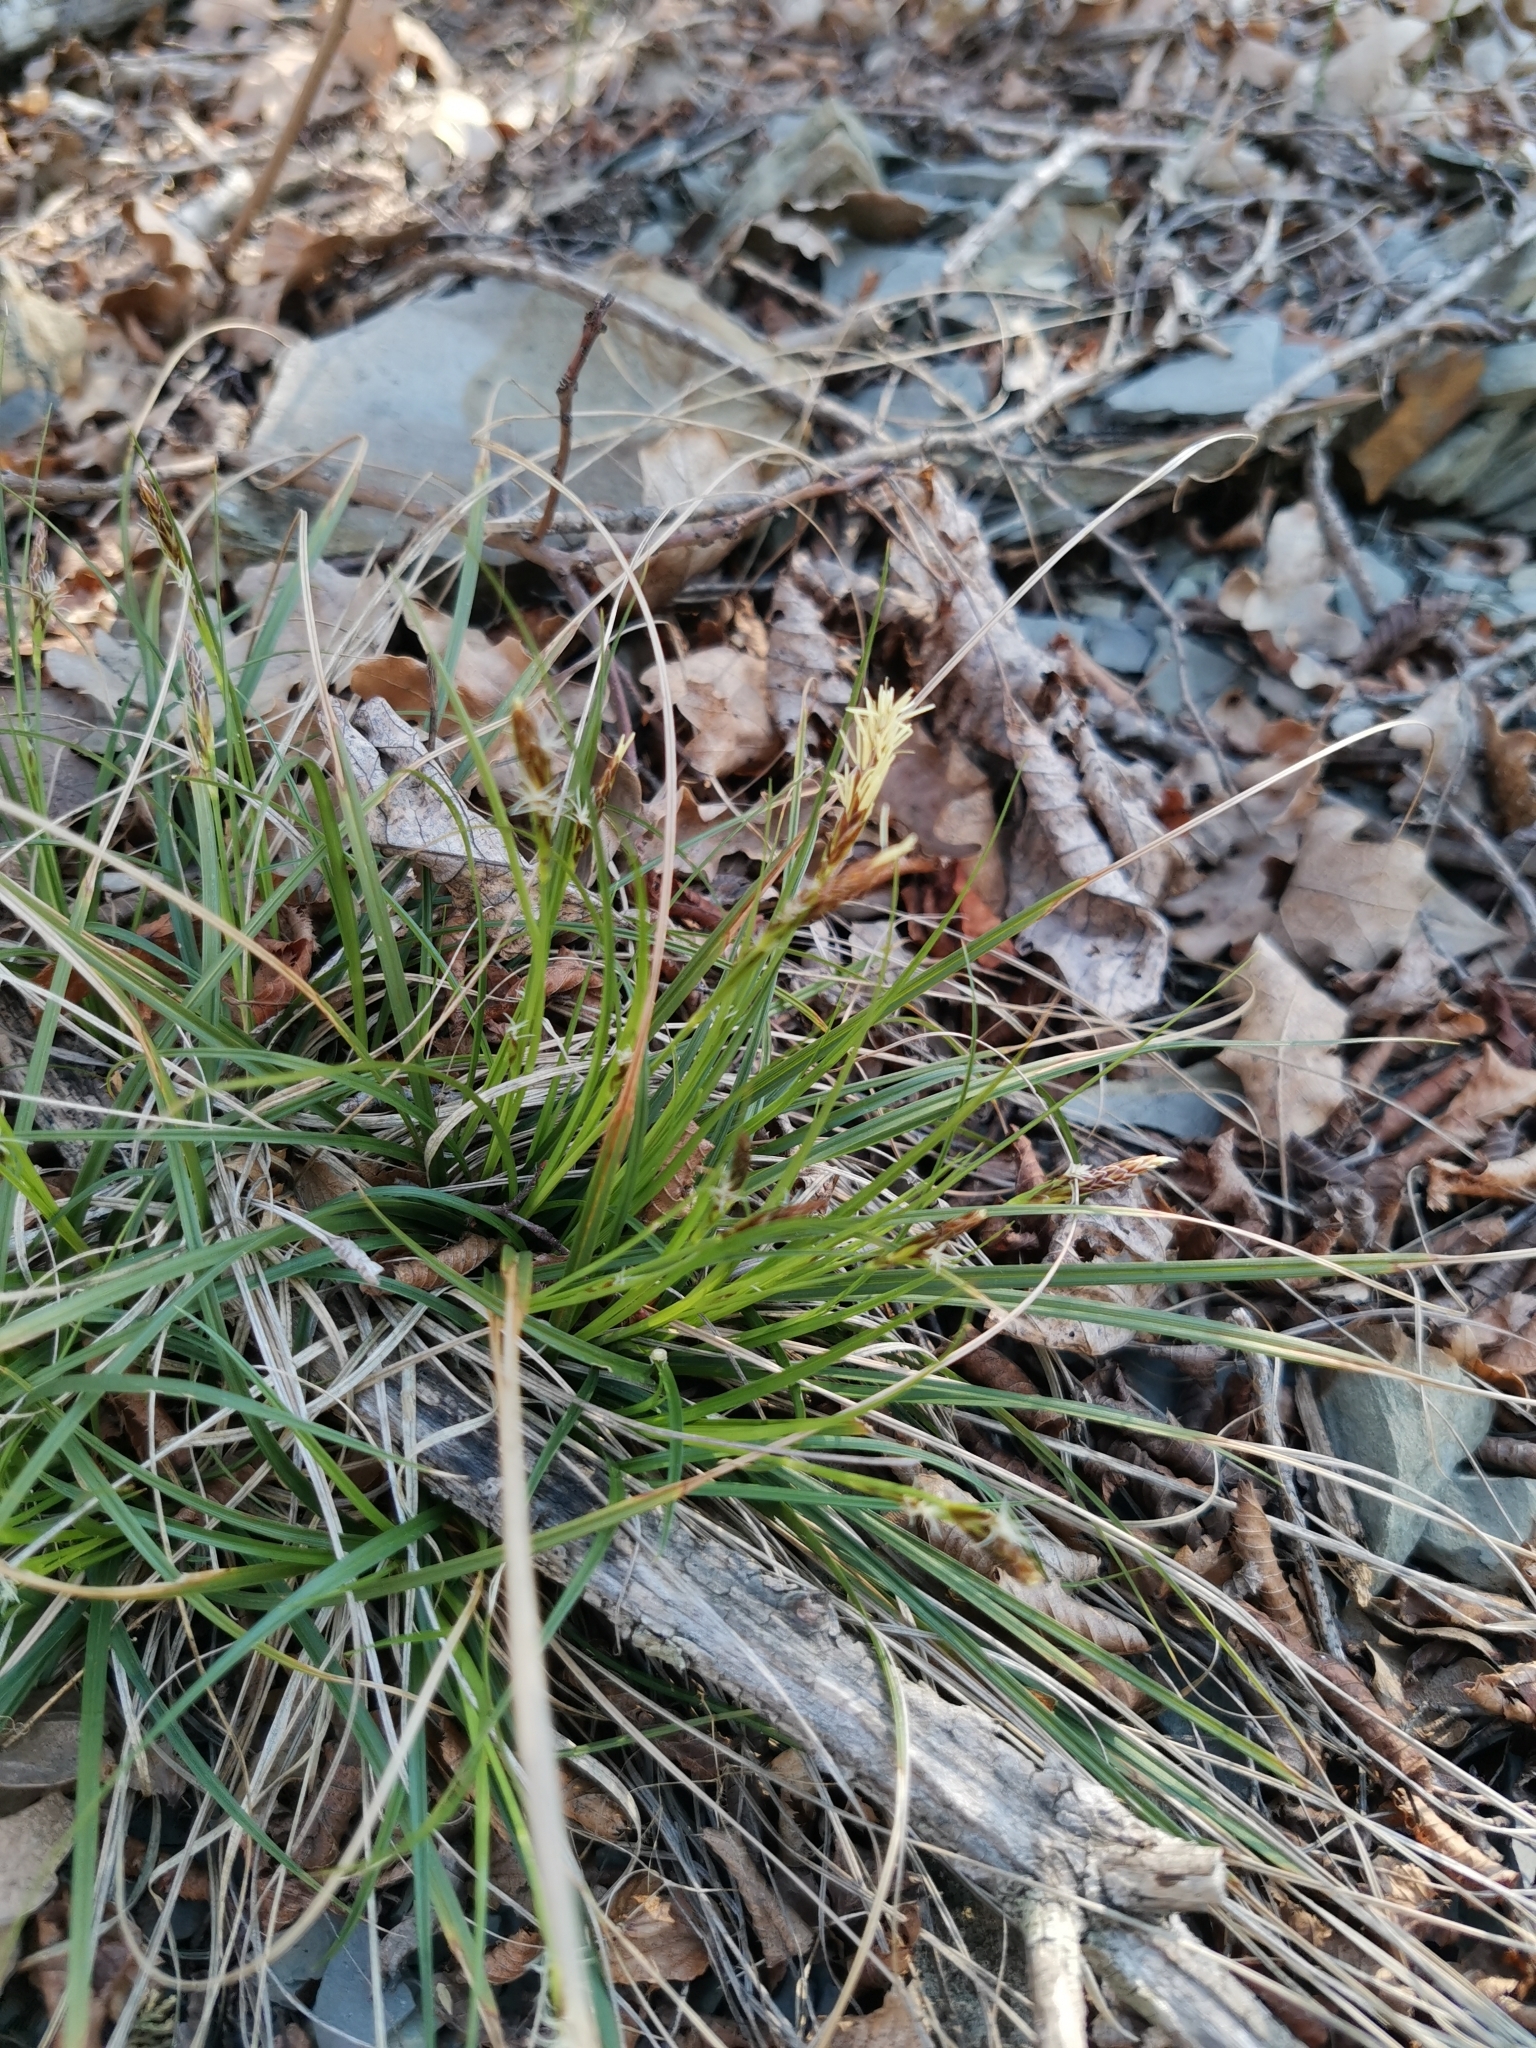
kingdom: Plantae
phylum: Tracheophyta
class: Liliopsida
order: Poales
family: Cyperaceae
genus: Carex
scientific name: Carex digitata
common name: Fingered sedge
